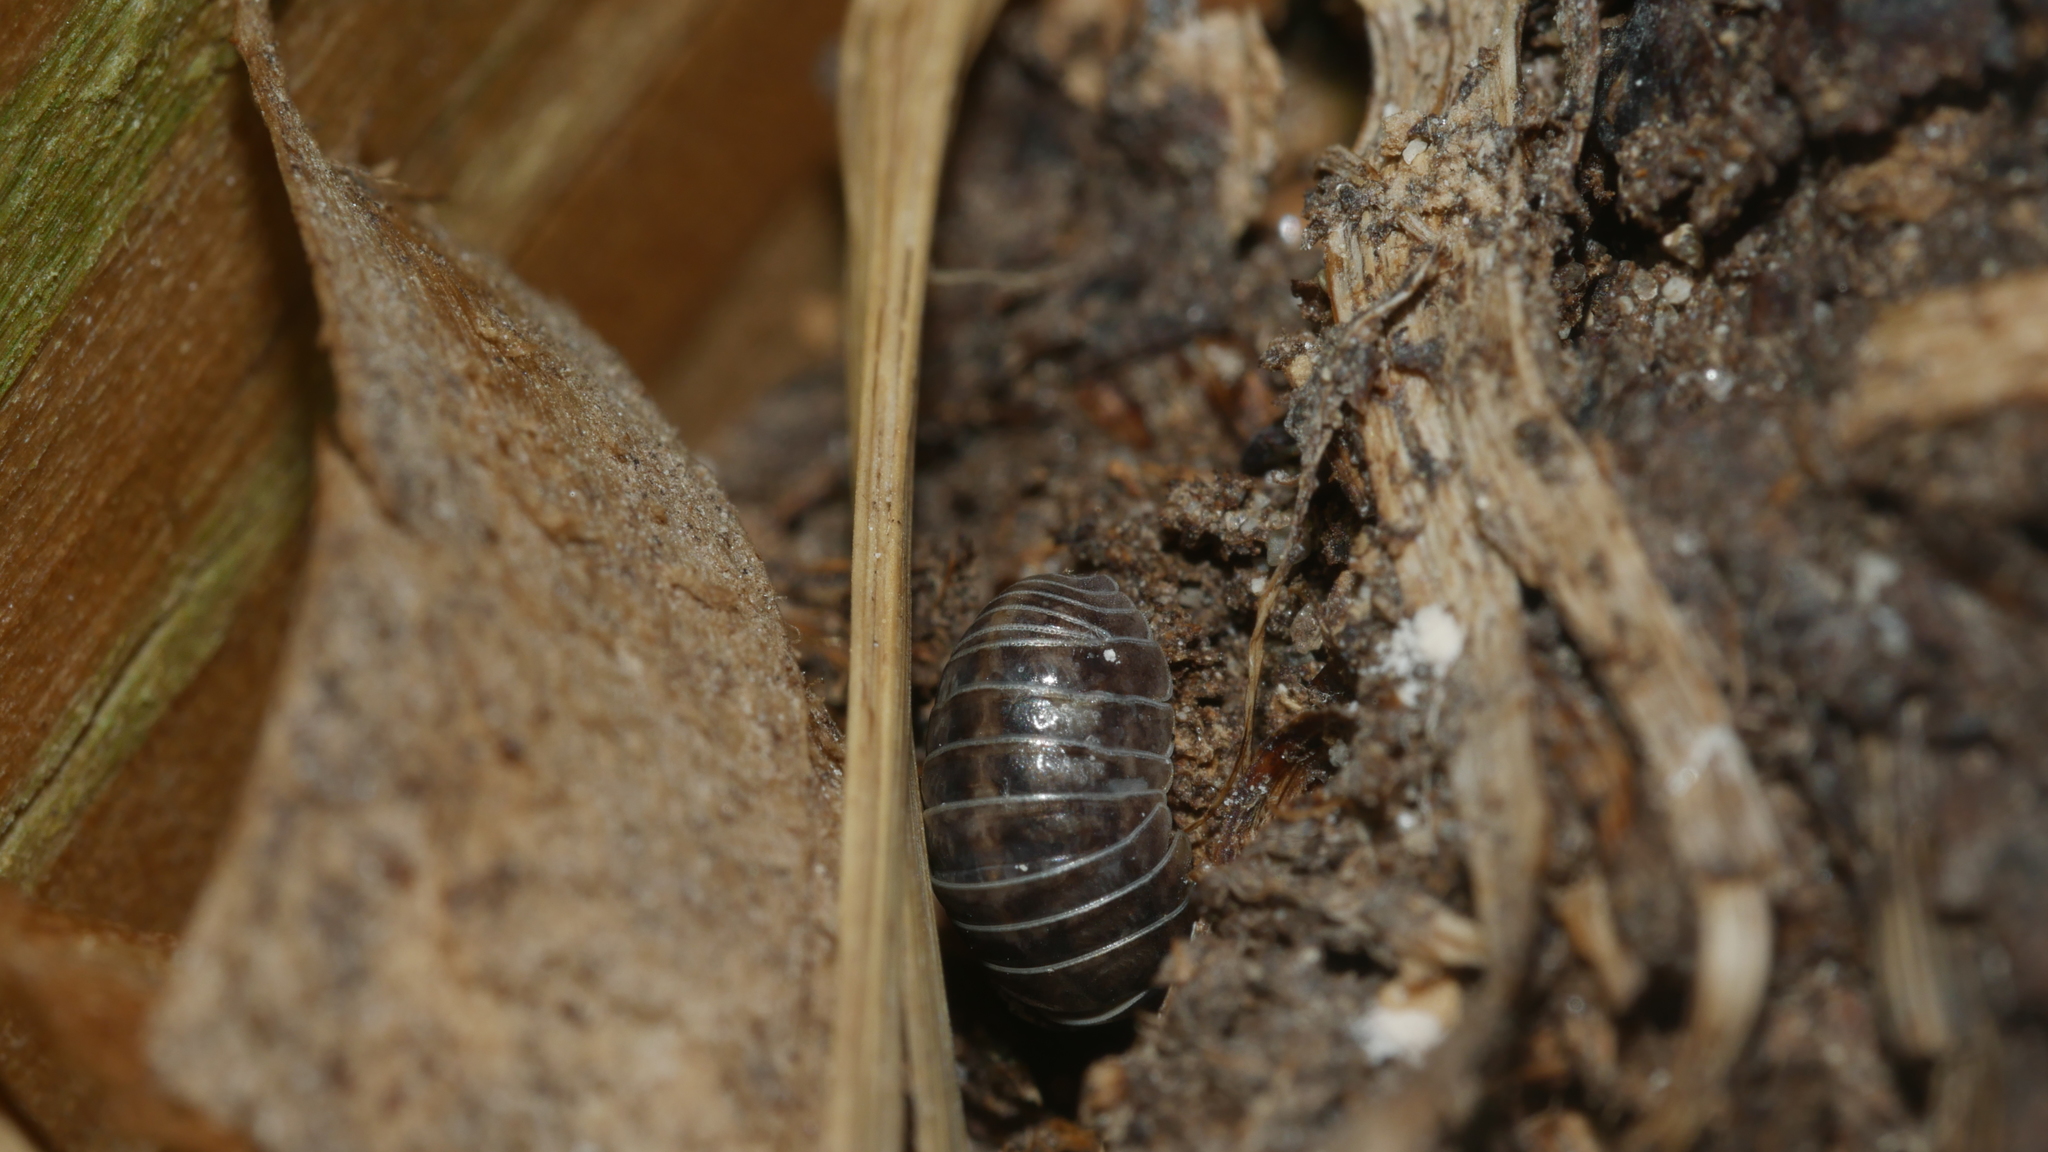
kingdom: Animalia
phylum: Arthropoda
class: Malacostraca
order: Isopoda
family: Armadillidiidae
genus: Armadillidium
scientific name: Armadillidium vulgare
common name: Common pill woodlouse
